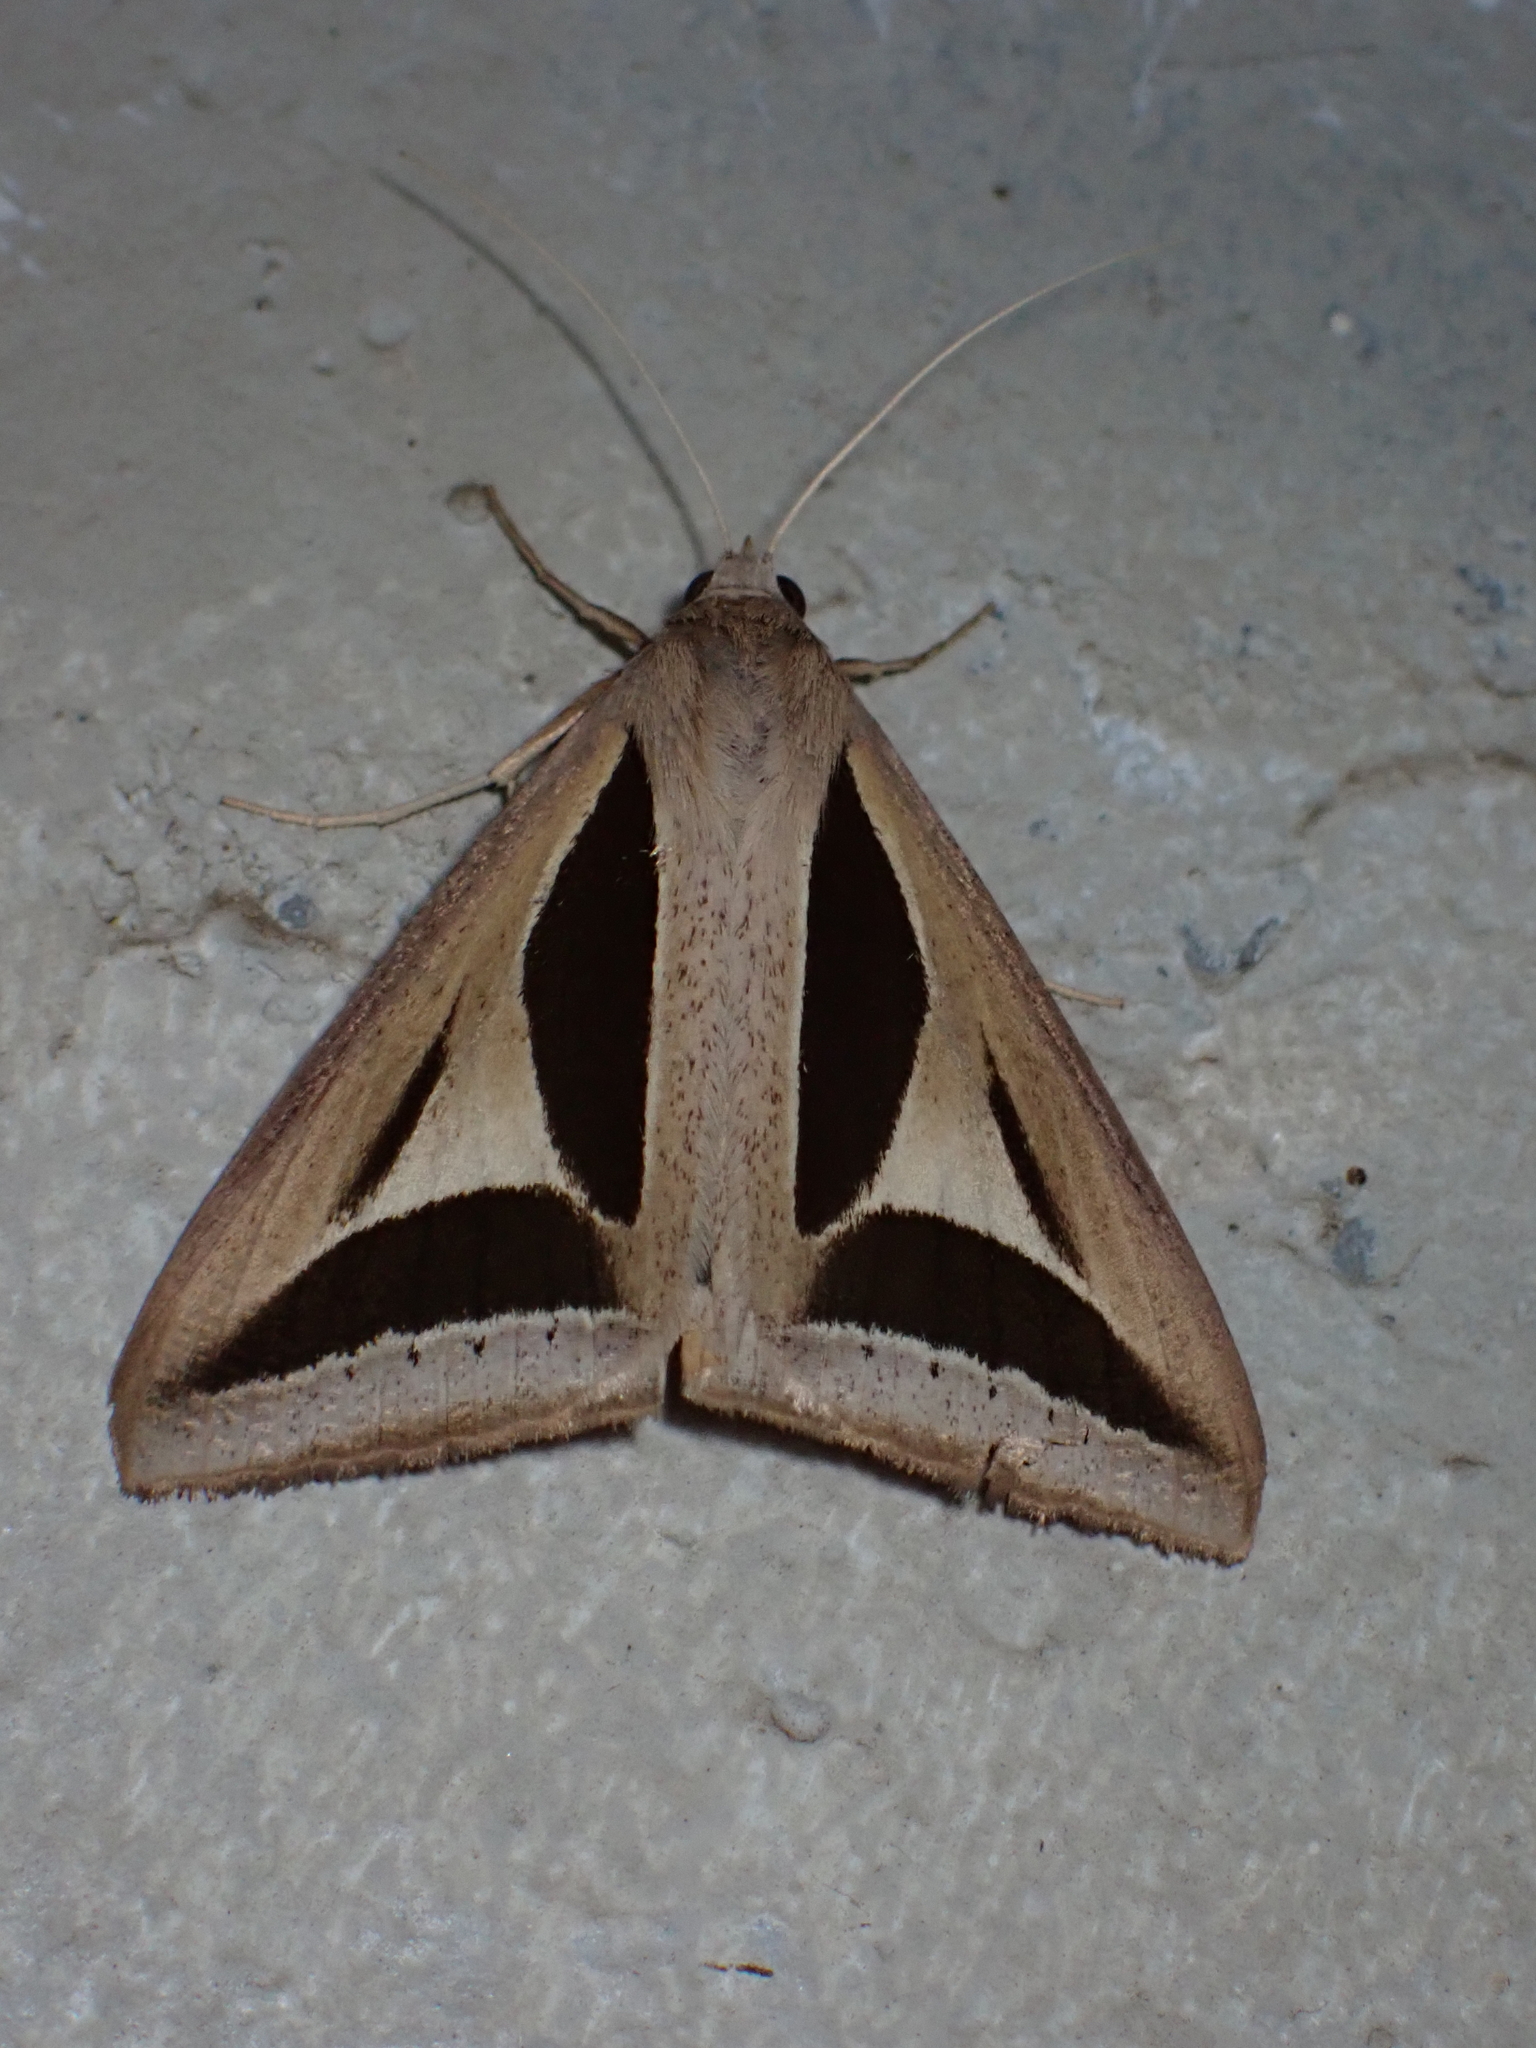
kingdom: Animalia
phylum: Arthropoda
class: Insecta
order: Lepidoptera
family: Erebidae
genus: Trigonodes
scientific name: Trigonodes cephise
